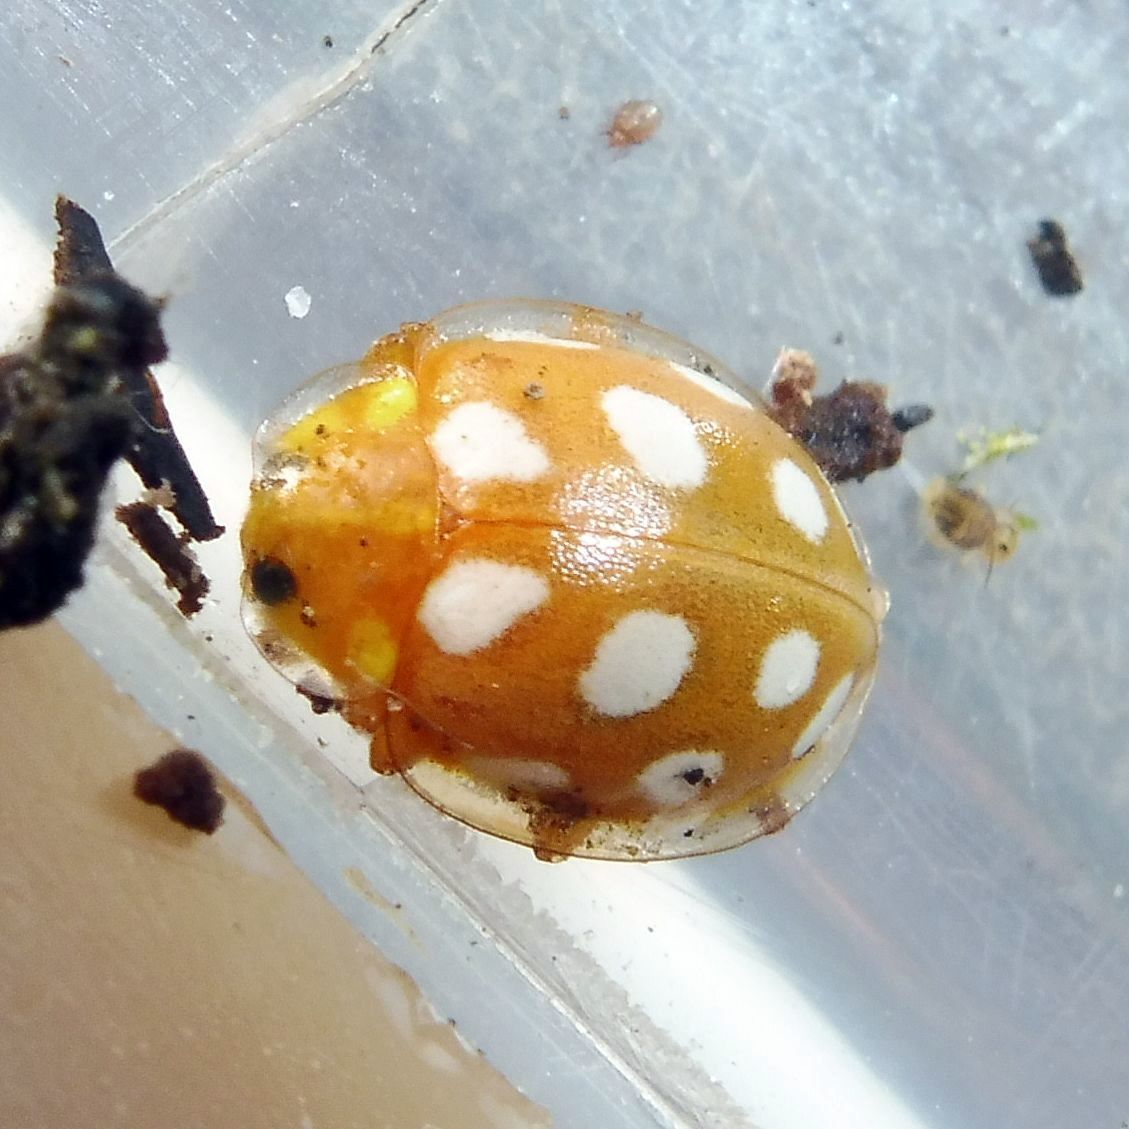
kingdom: Animalia
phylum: Arthropoda
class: Insecta
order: Coleoptera
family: Coccinellidae
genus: Halyzia
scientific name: Halyzia sedecimguttata
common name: Orange ladybird
